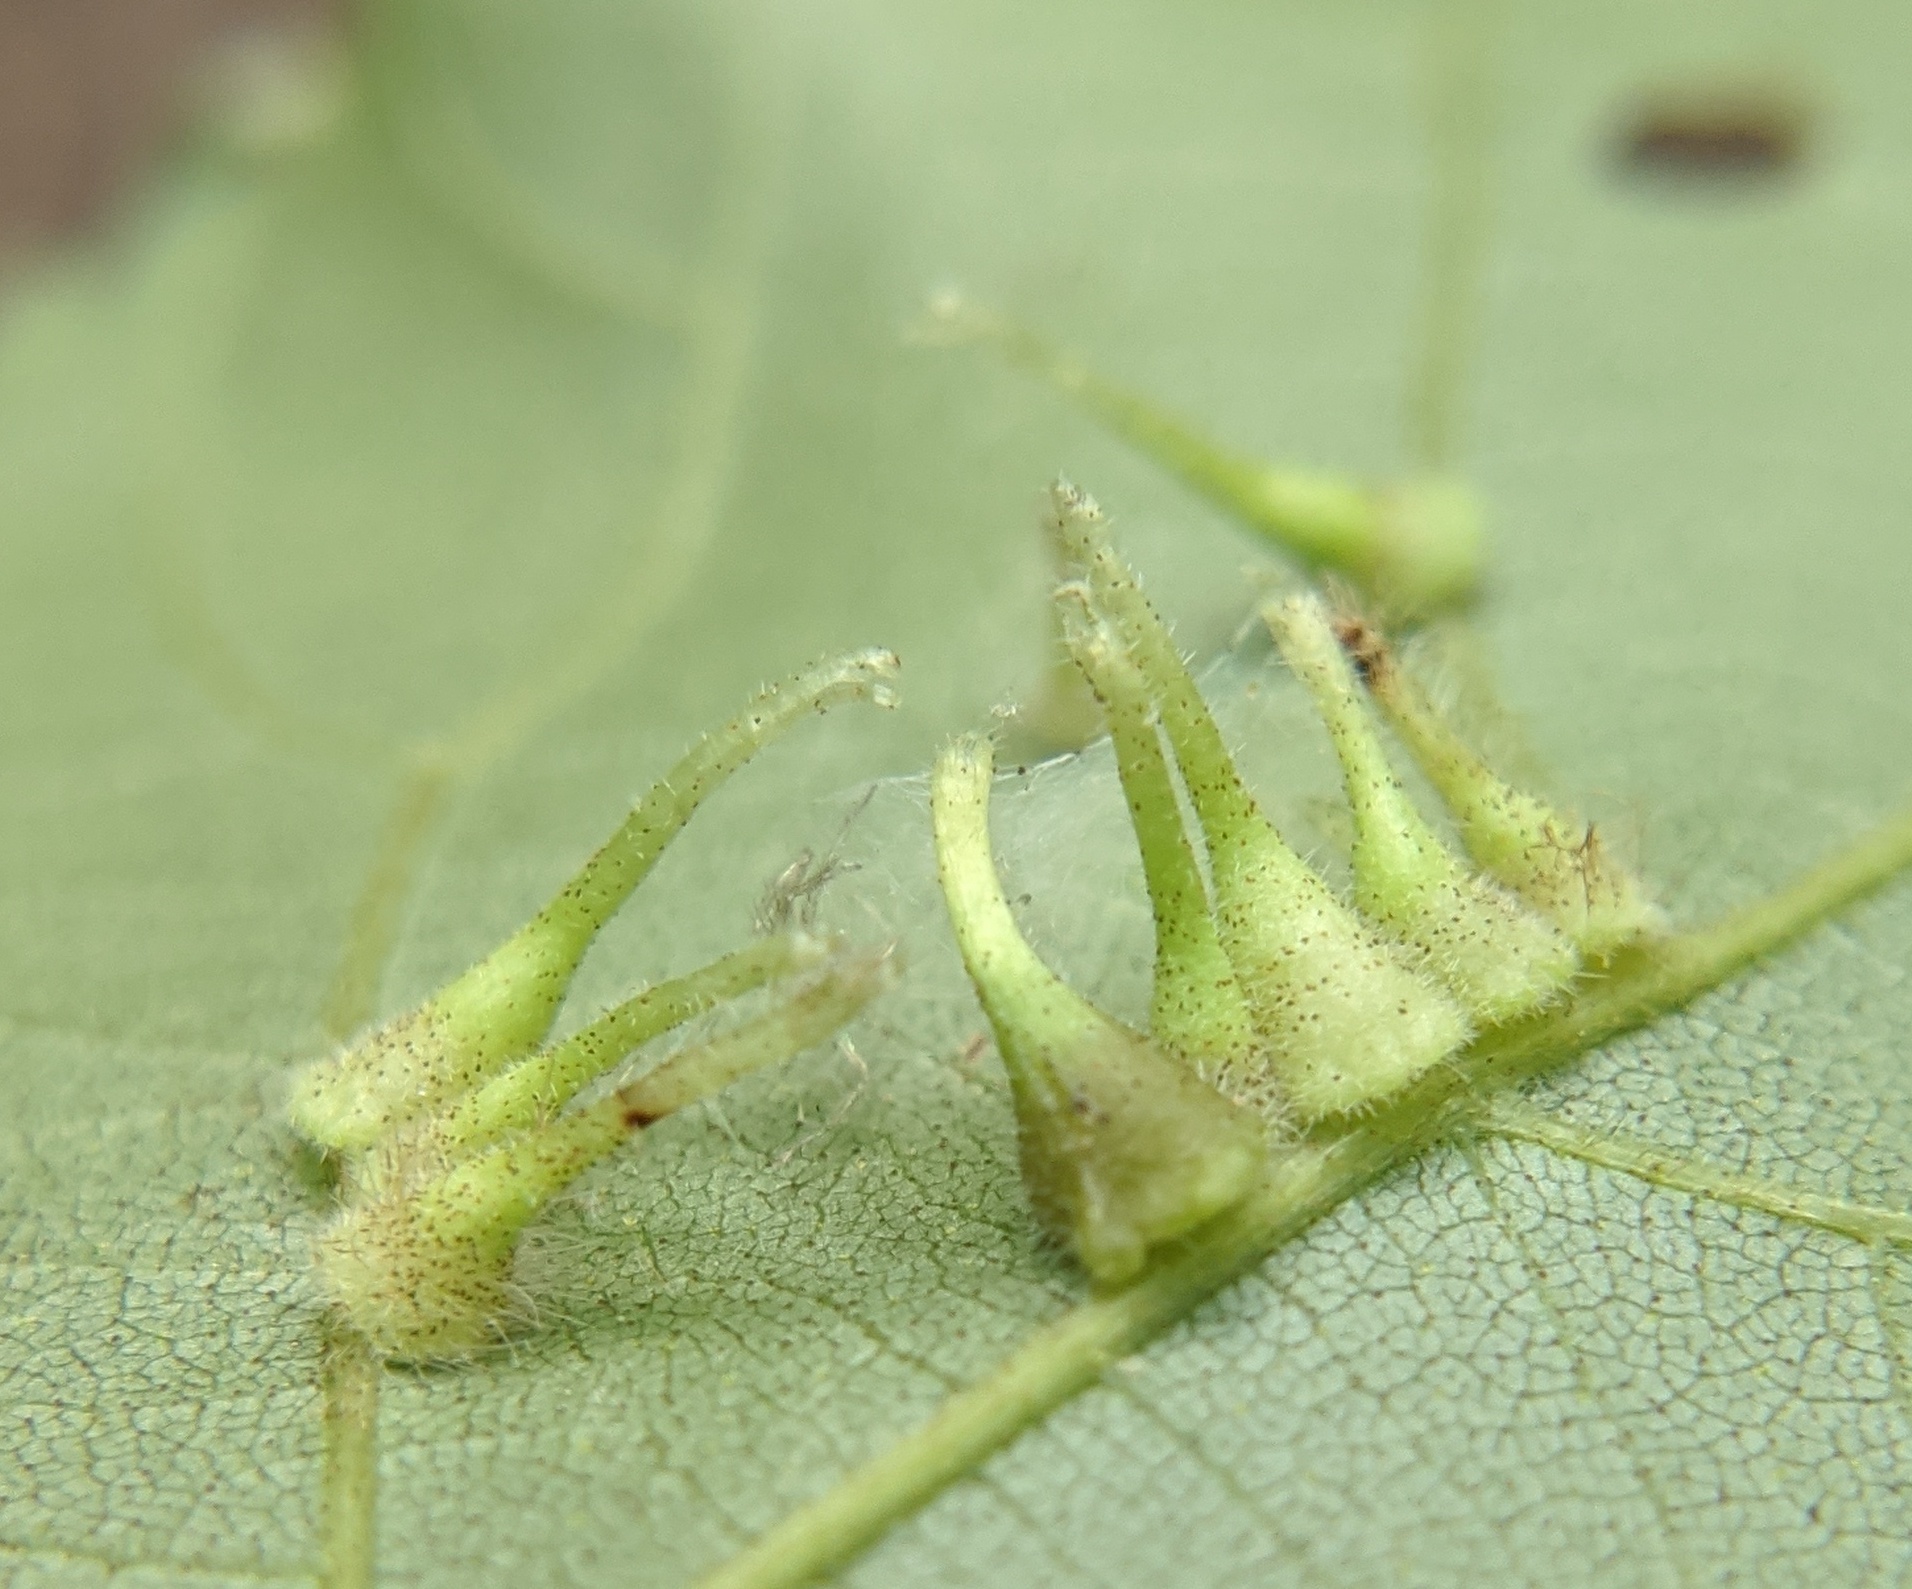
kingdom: Animalia
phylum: Arthropoda
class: Insecta
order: Diptera
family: Cecidomyiidae
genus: Caryomyia
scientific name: Caryomyia inclinata
